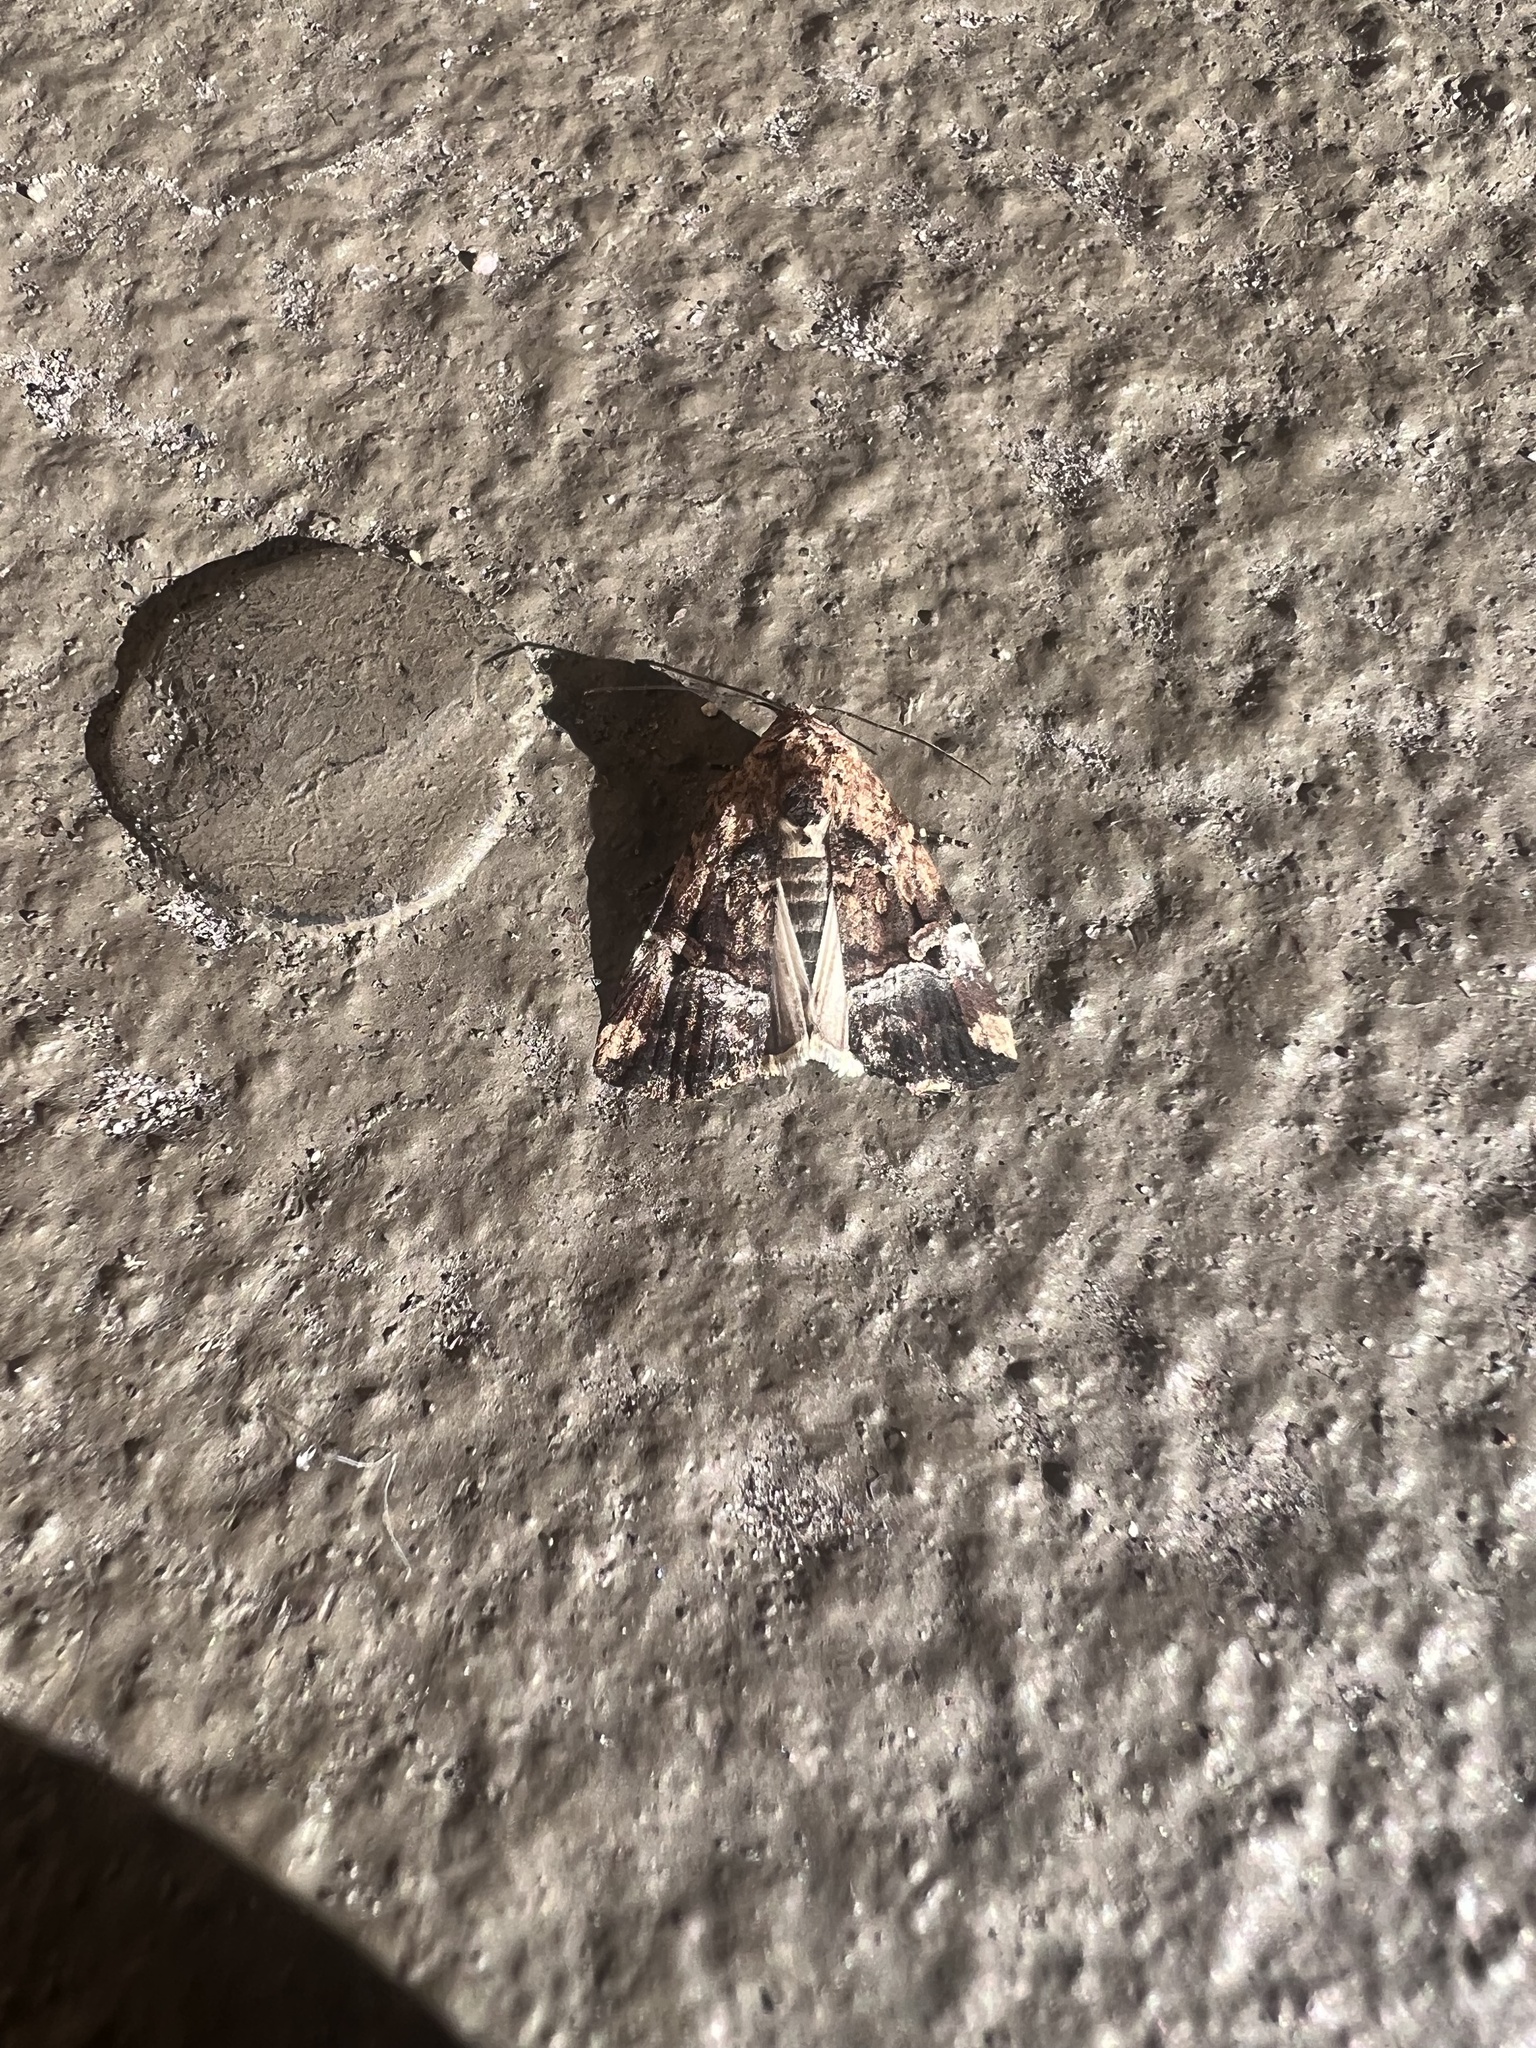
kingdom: Animalia
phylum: Arthropoda
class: Insecta
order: Lepidoptera
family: Noctuidae
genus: Homophoberia
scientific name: Homophoberia apicosa
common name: Black wedge-spot
